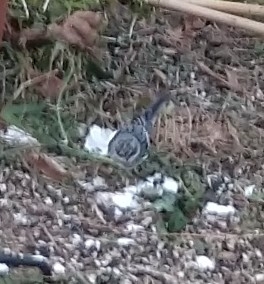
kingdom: Animalia
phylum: Chordata
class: Aves
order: Passeriformes
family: Parulidae
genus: Setophaga
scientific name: Setophaga coronata
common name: Myrtle warbler
